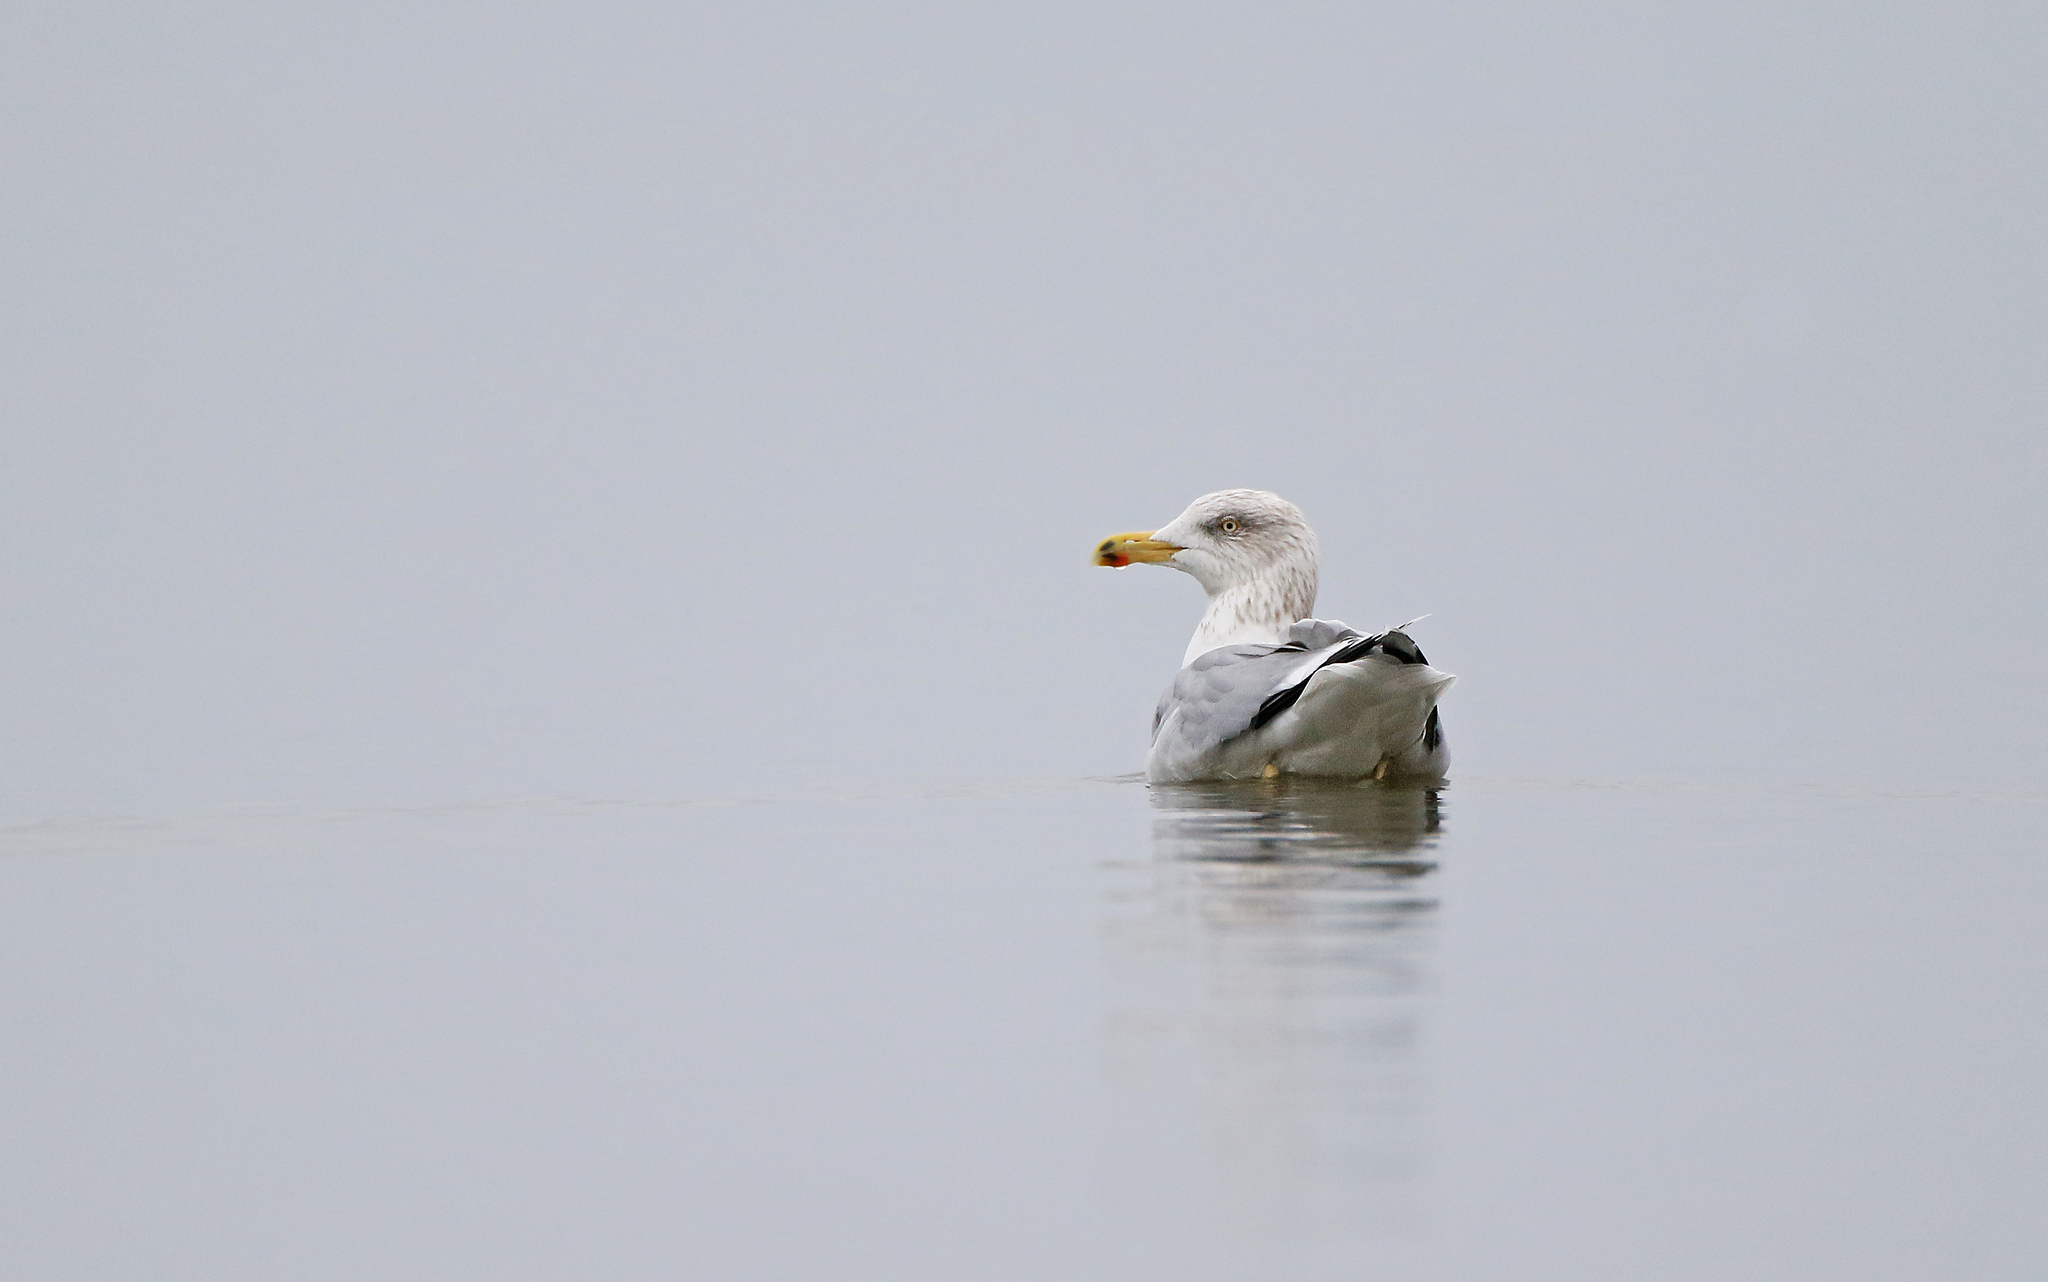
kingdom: Animalia
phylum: Chordata
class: Aves
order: Charadriiformes
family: Laridae
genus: Larus
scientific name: Larus argentatus
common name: Herring gull
